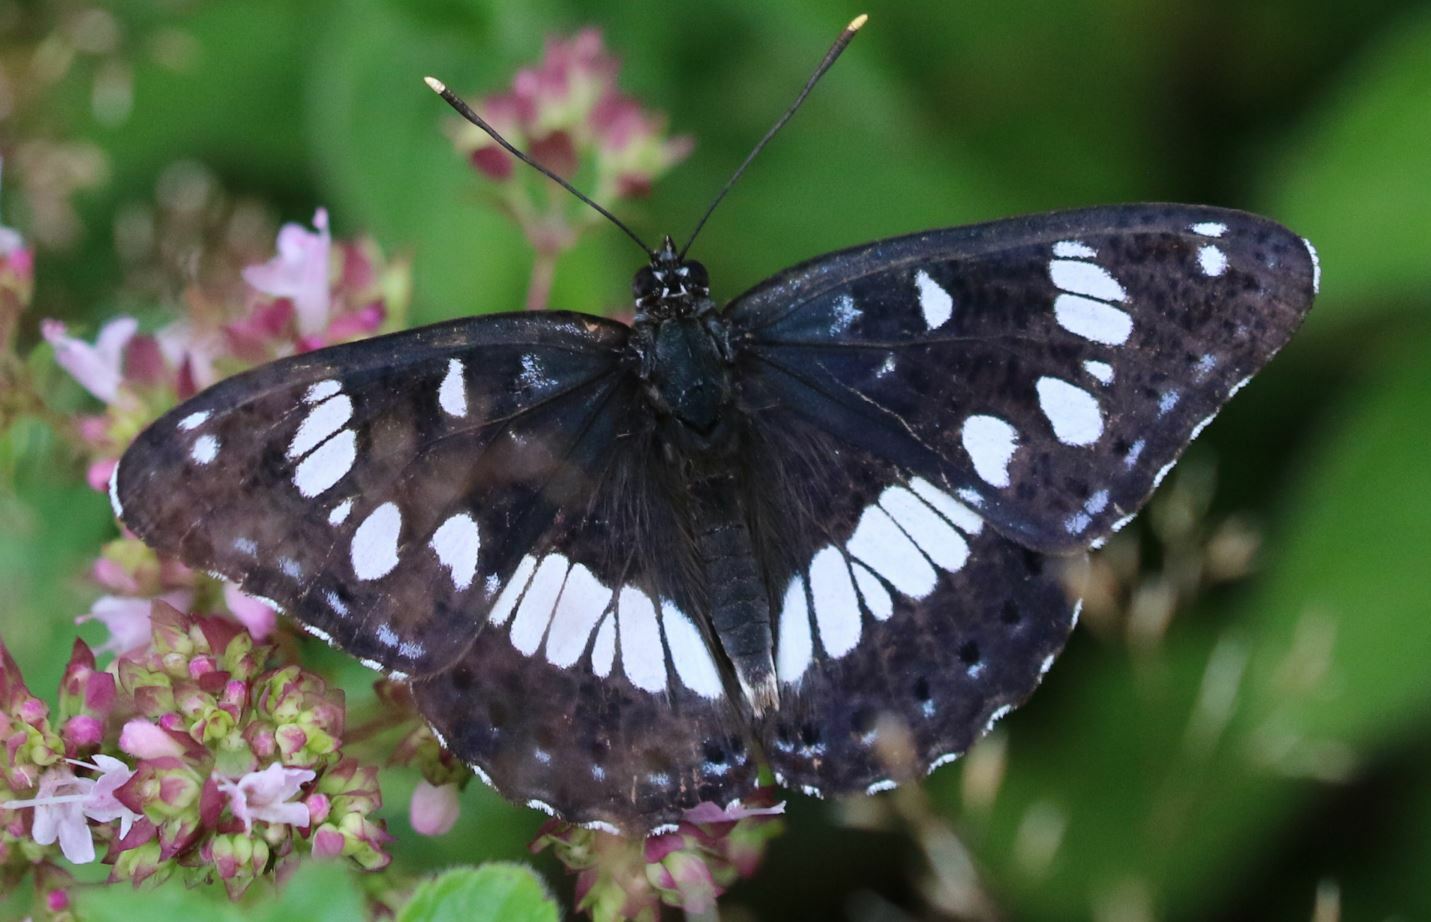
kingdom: Animalia
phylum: Arthropoda
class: Insecta
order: Lepidoptera
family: Nymphalidae
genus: Limenitis
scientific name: Limenitis reducta
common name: Southern white admiral
